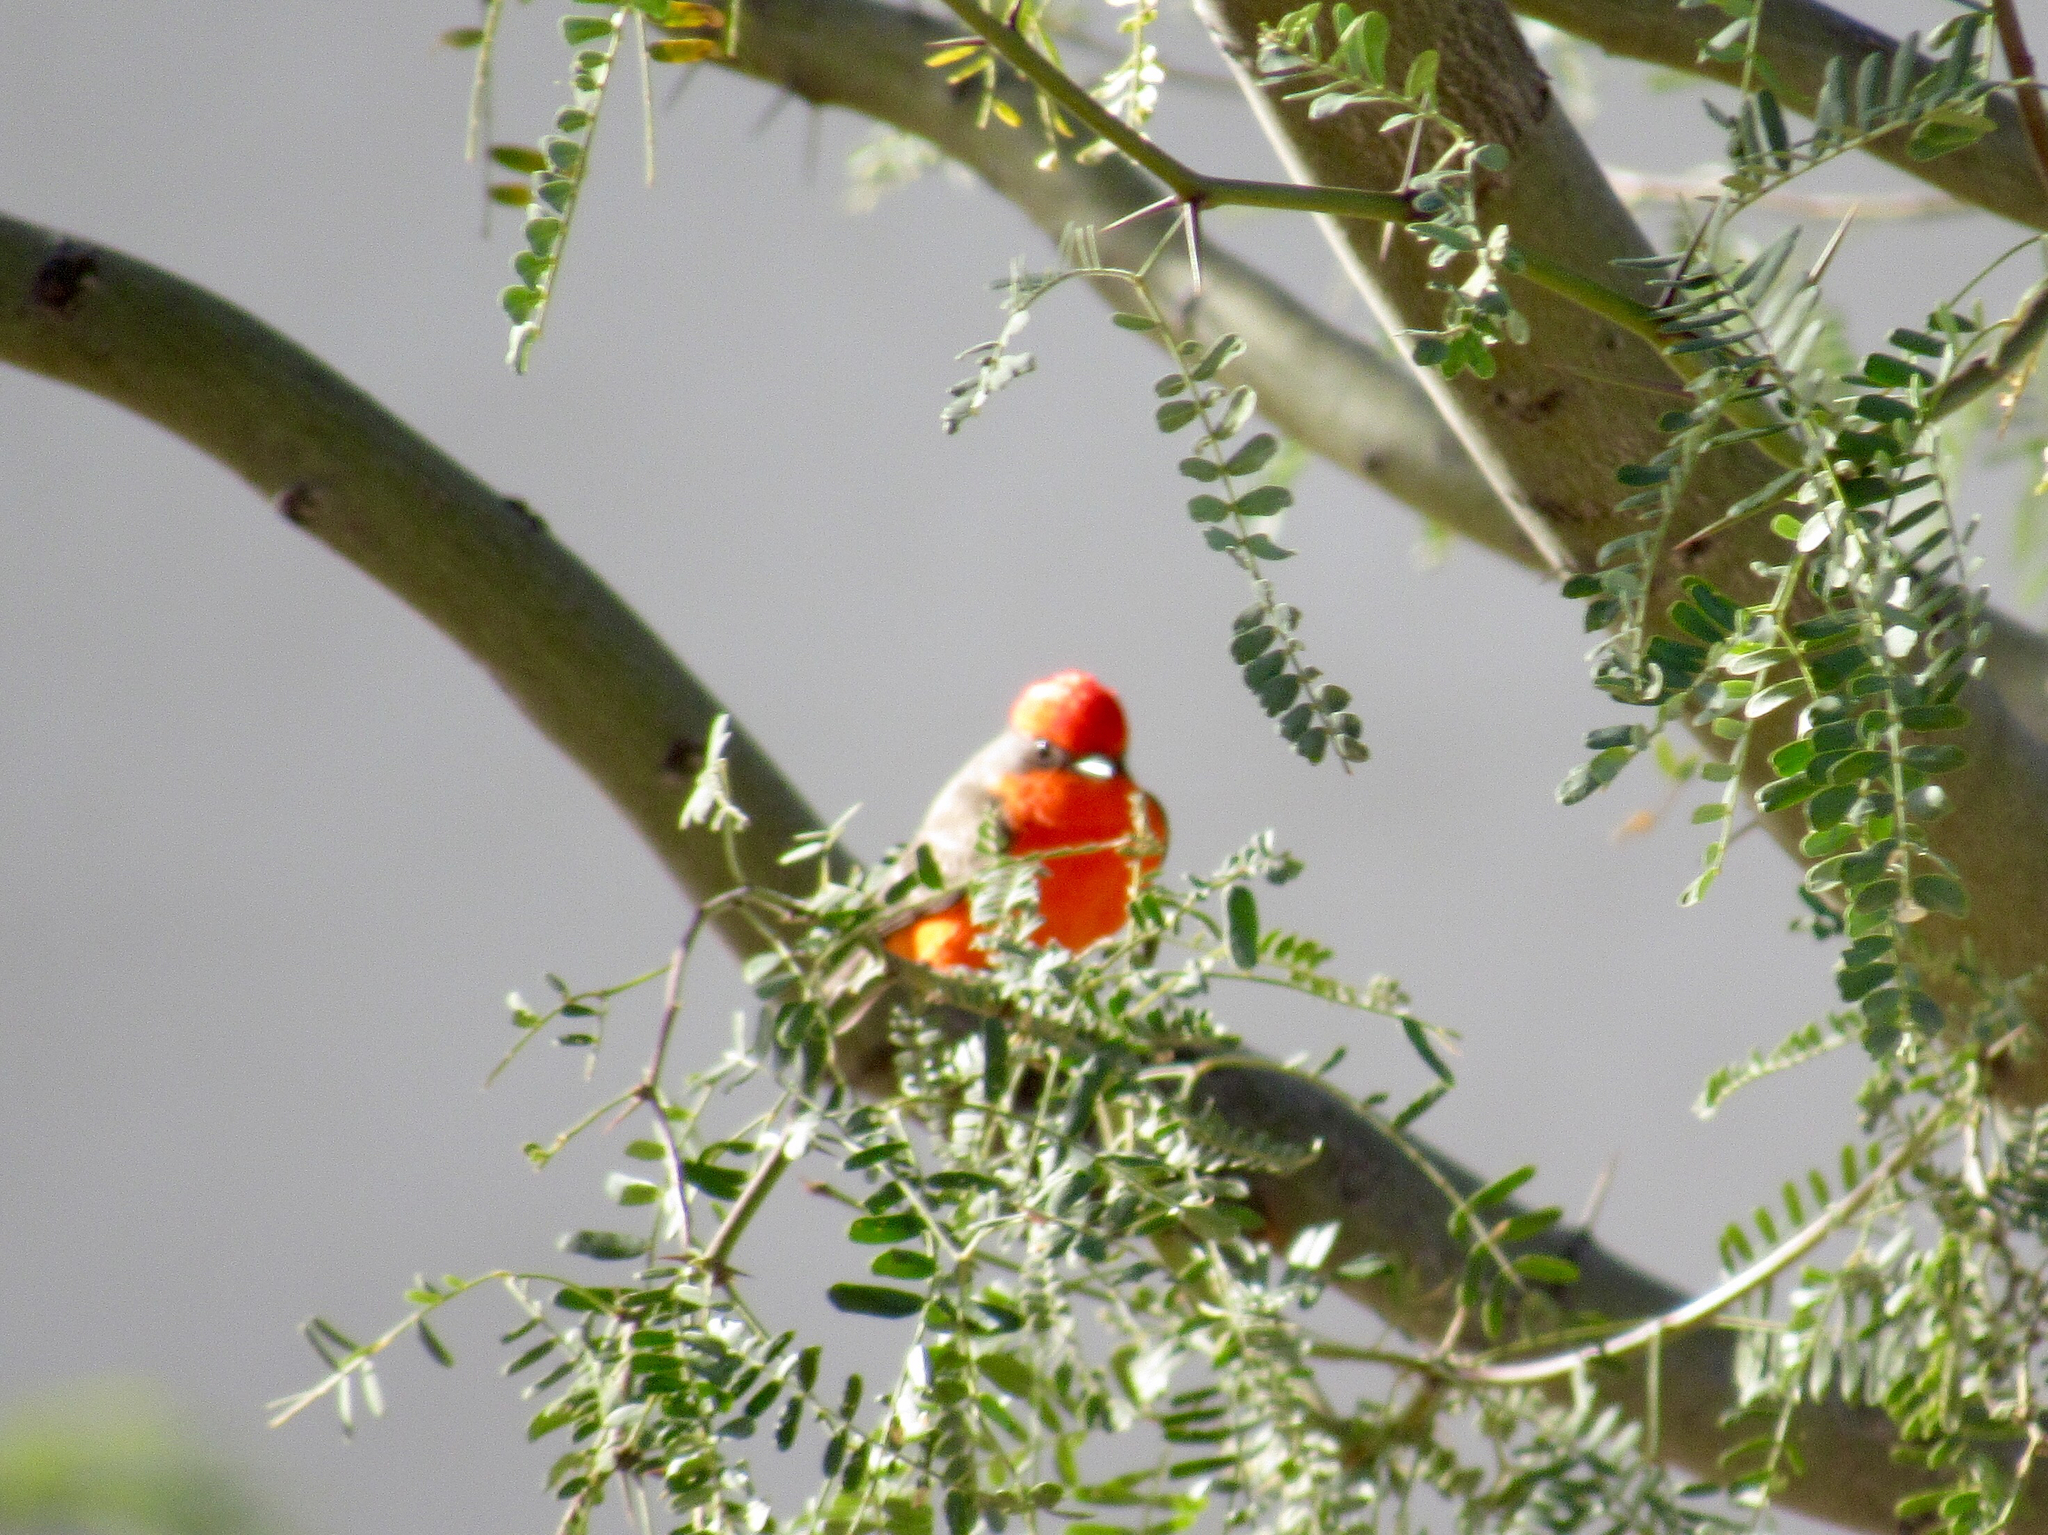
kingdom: Animalia
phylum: Chordata
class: Aves
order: Passeriformes
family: Tyrannidae
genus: Pyrocephalus
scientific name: Pyrocephalus rubinus
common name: Vermilion flycatcher
